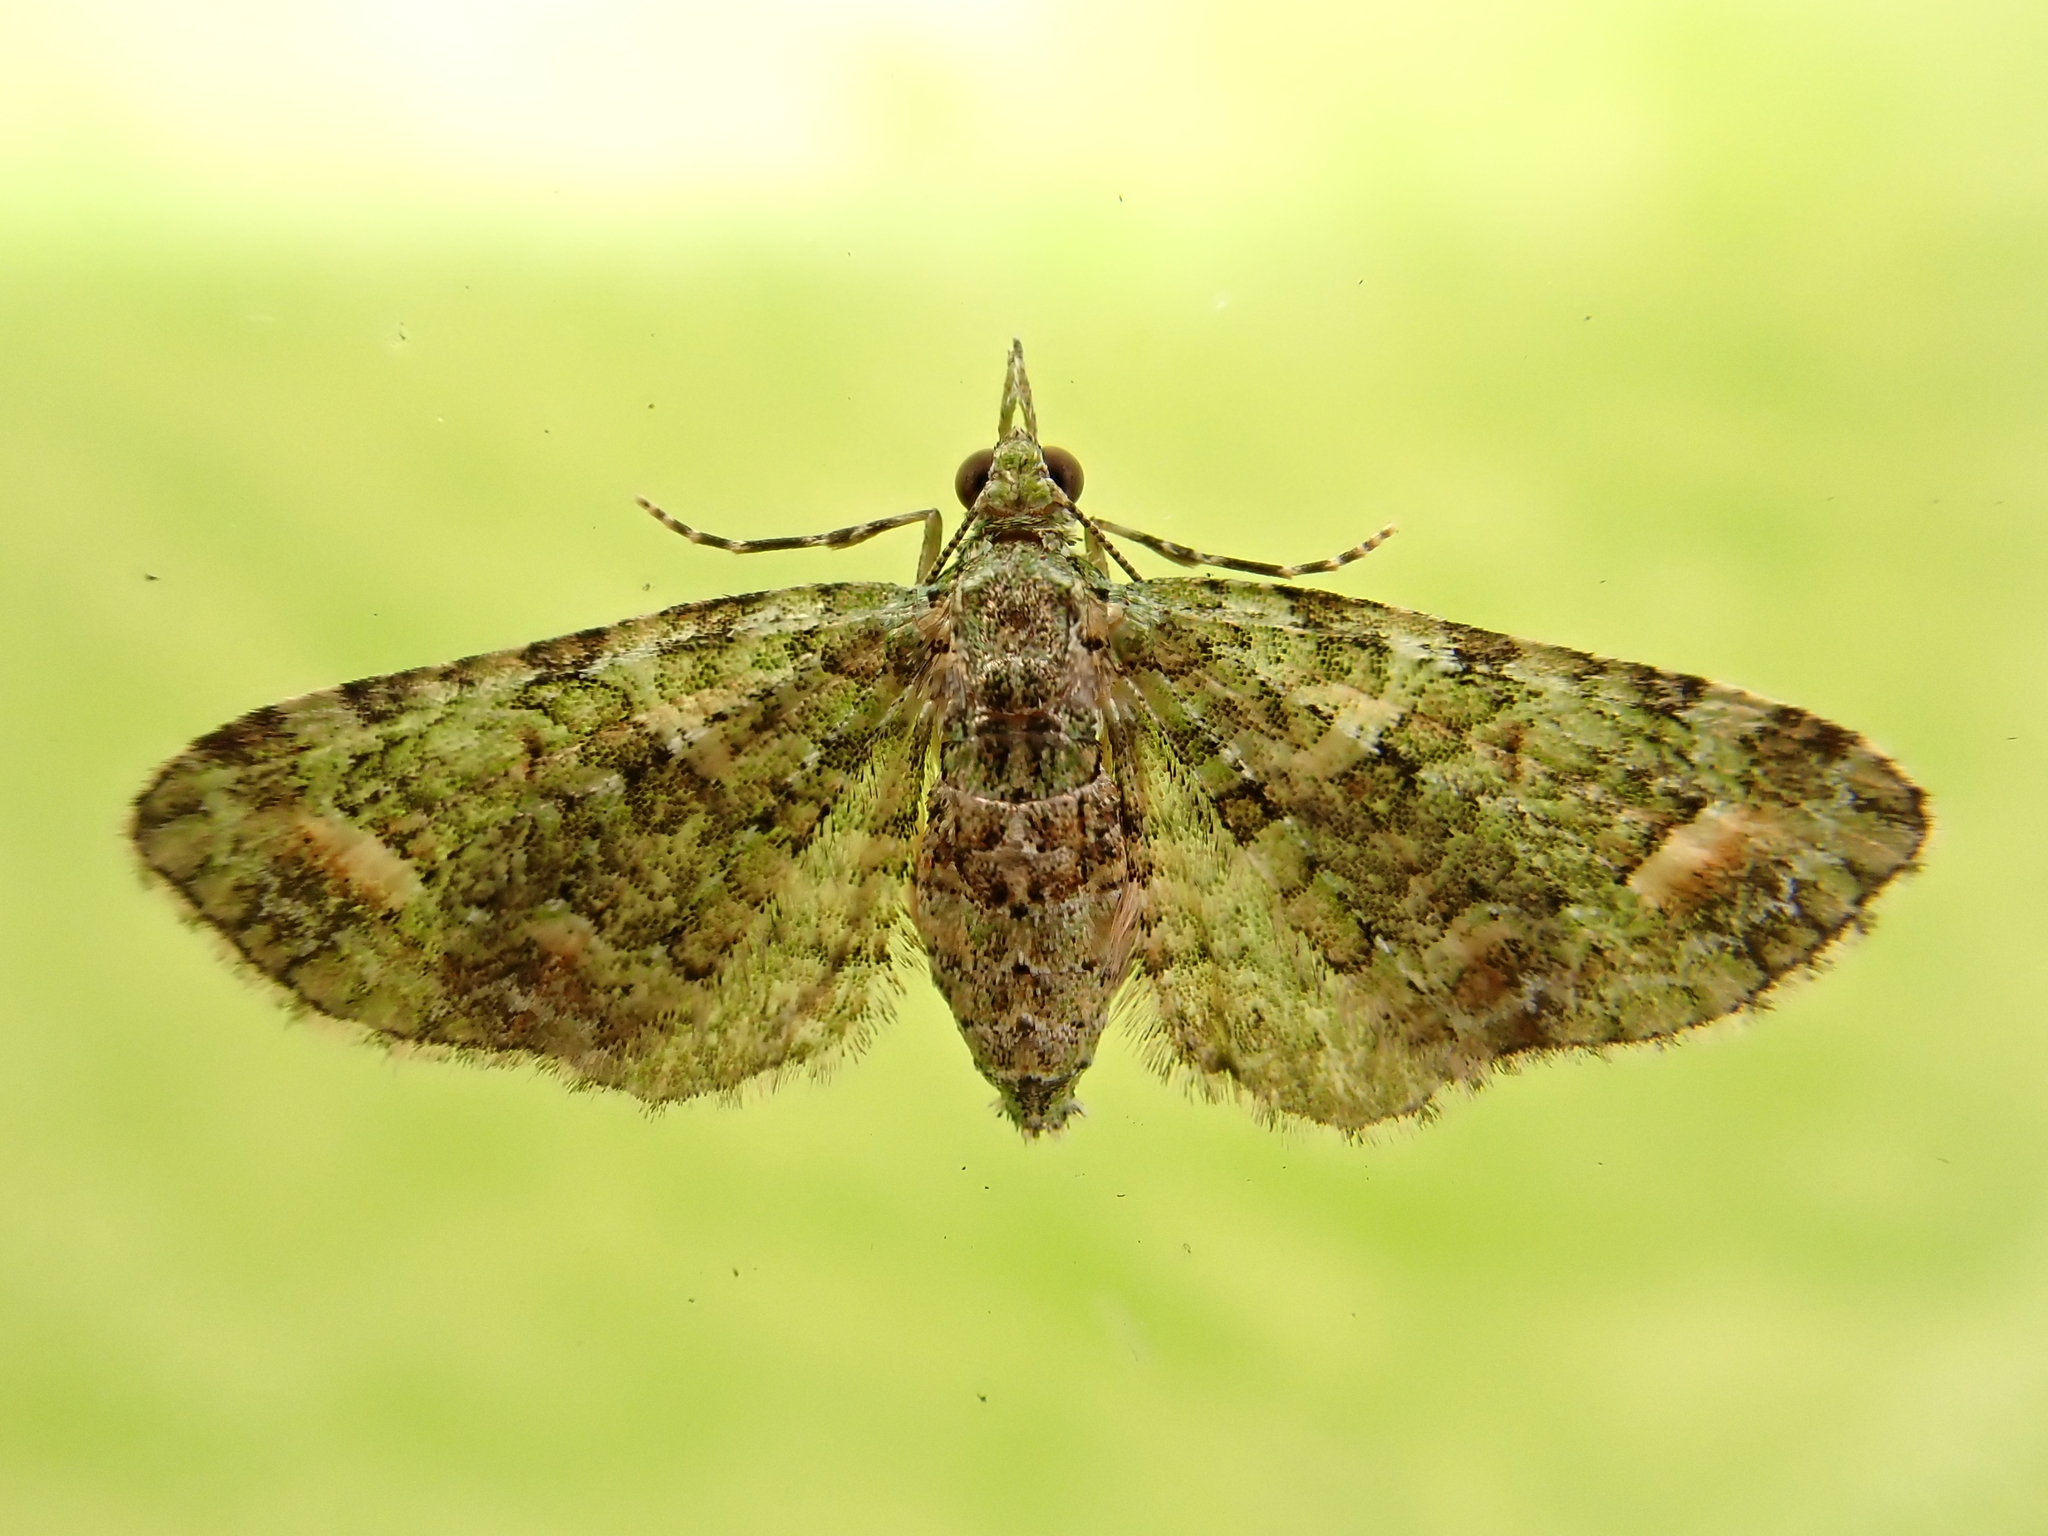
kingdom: Animalia
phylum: Arthropoda
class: Insecta
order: Lepidoptera
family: Geometridae
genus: Idaea
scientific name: Idaea mutanda
